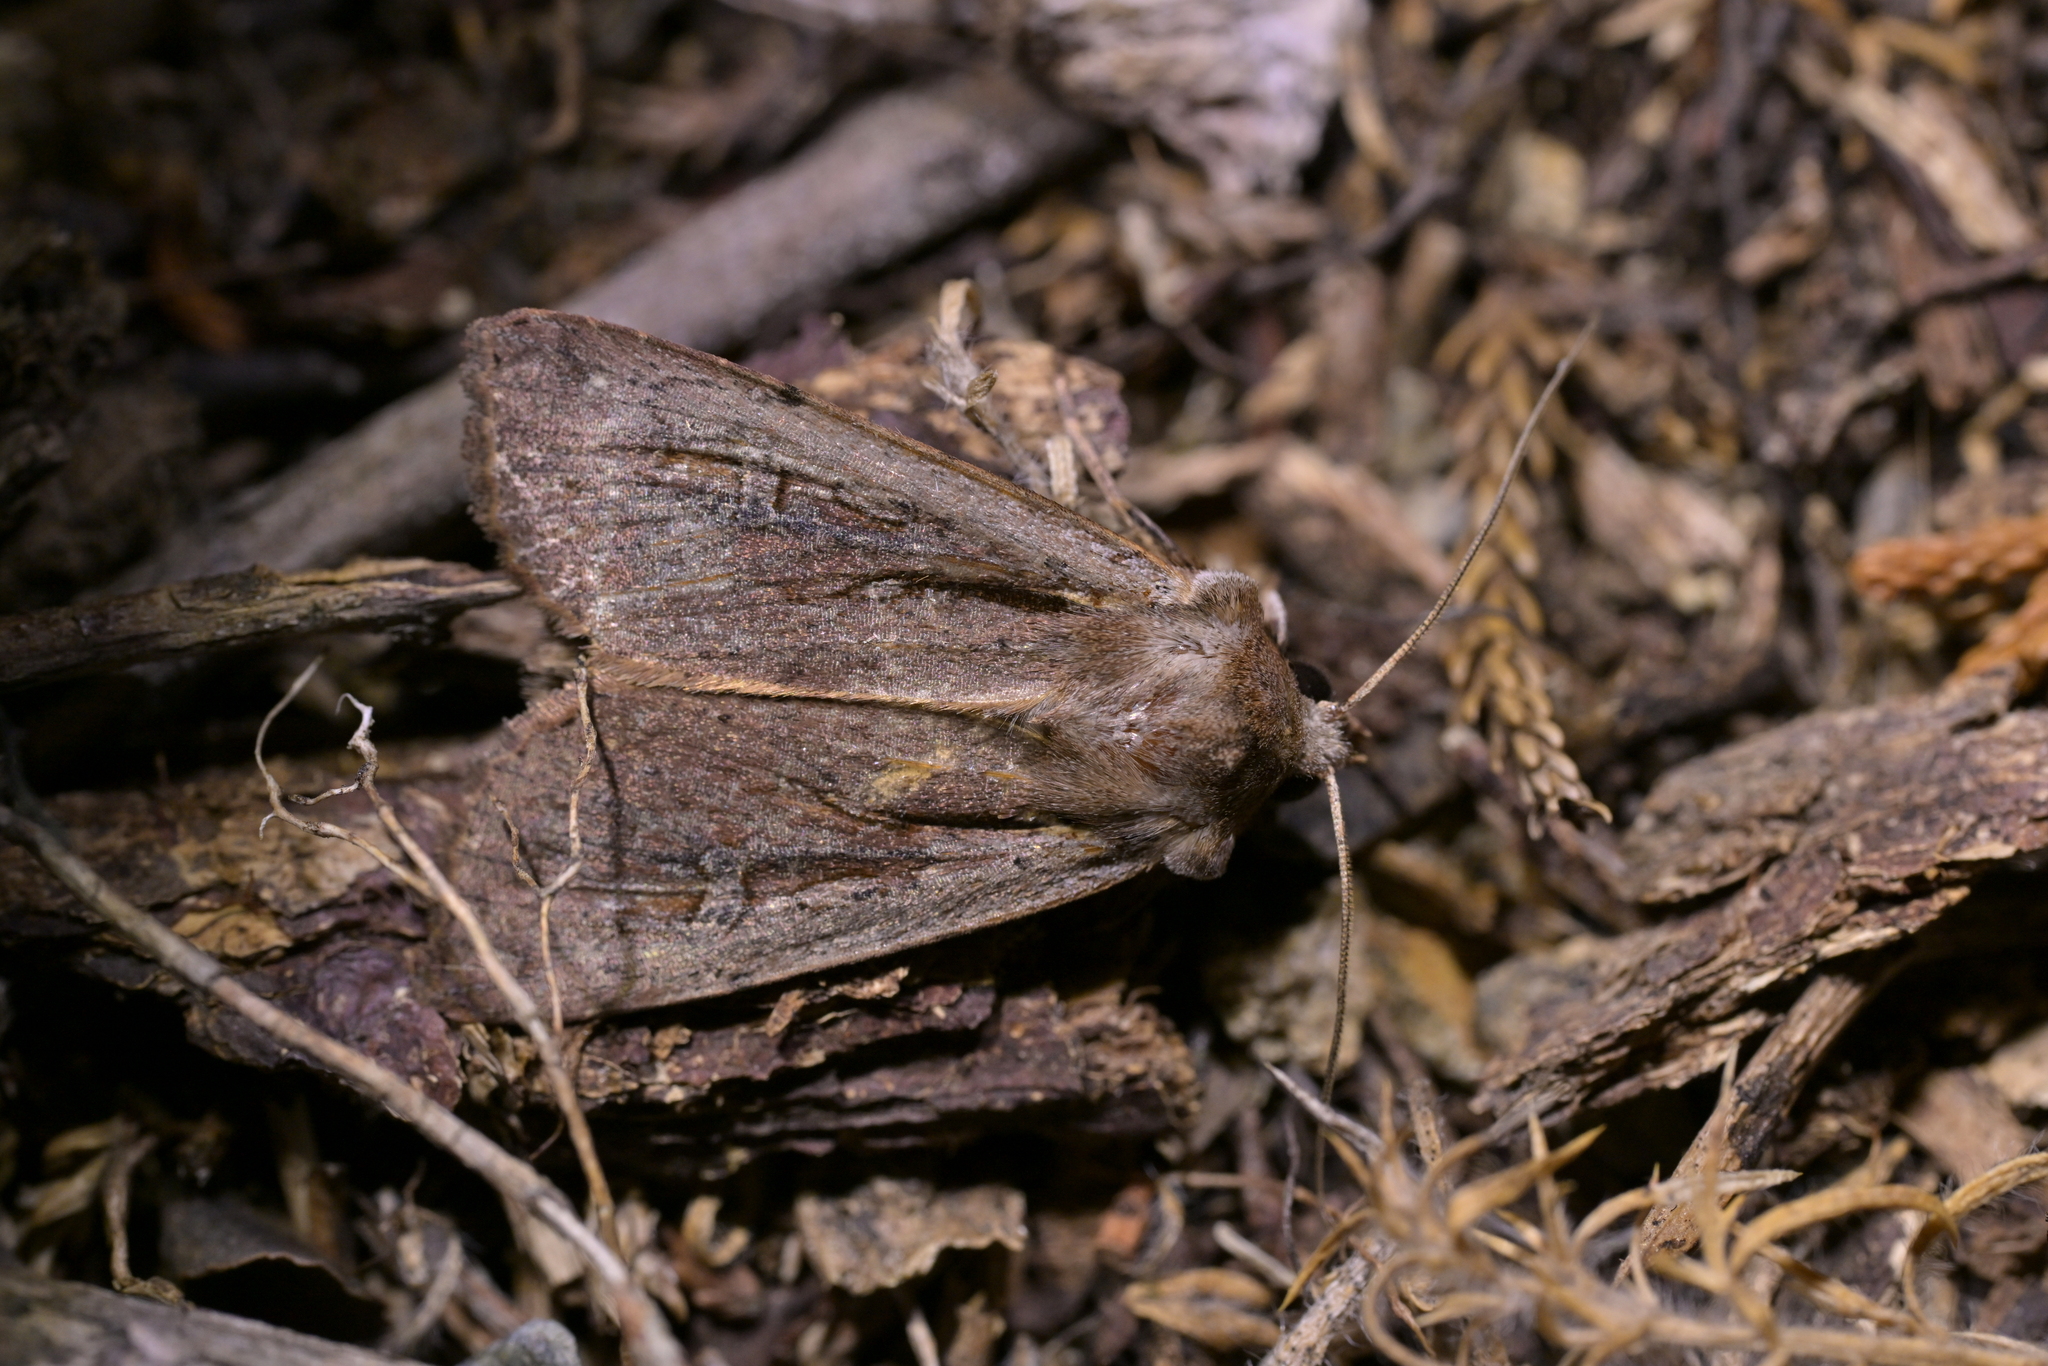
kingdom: Animalia
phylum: Arthropoda
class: Insecta
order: Lepidoptera
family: Noctuidae
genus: Ichneutica
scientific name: Ichneutica atristriga
